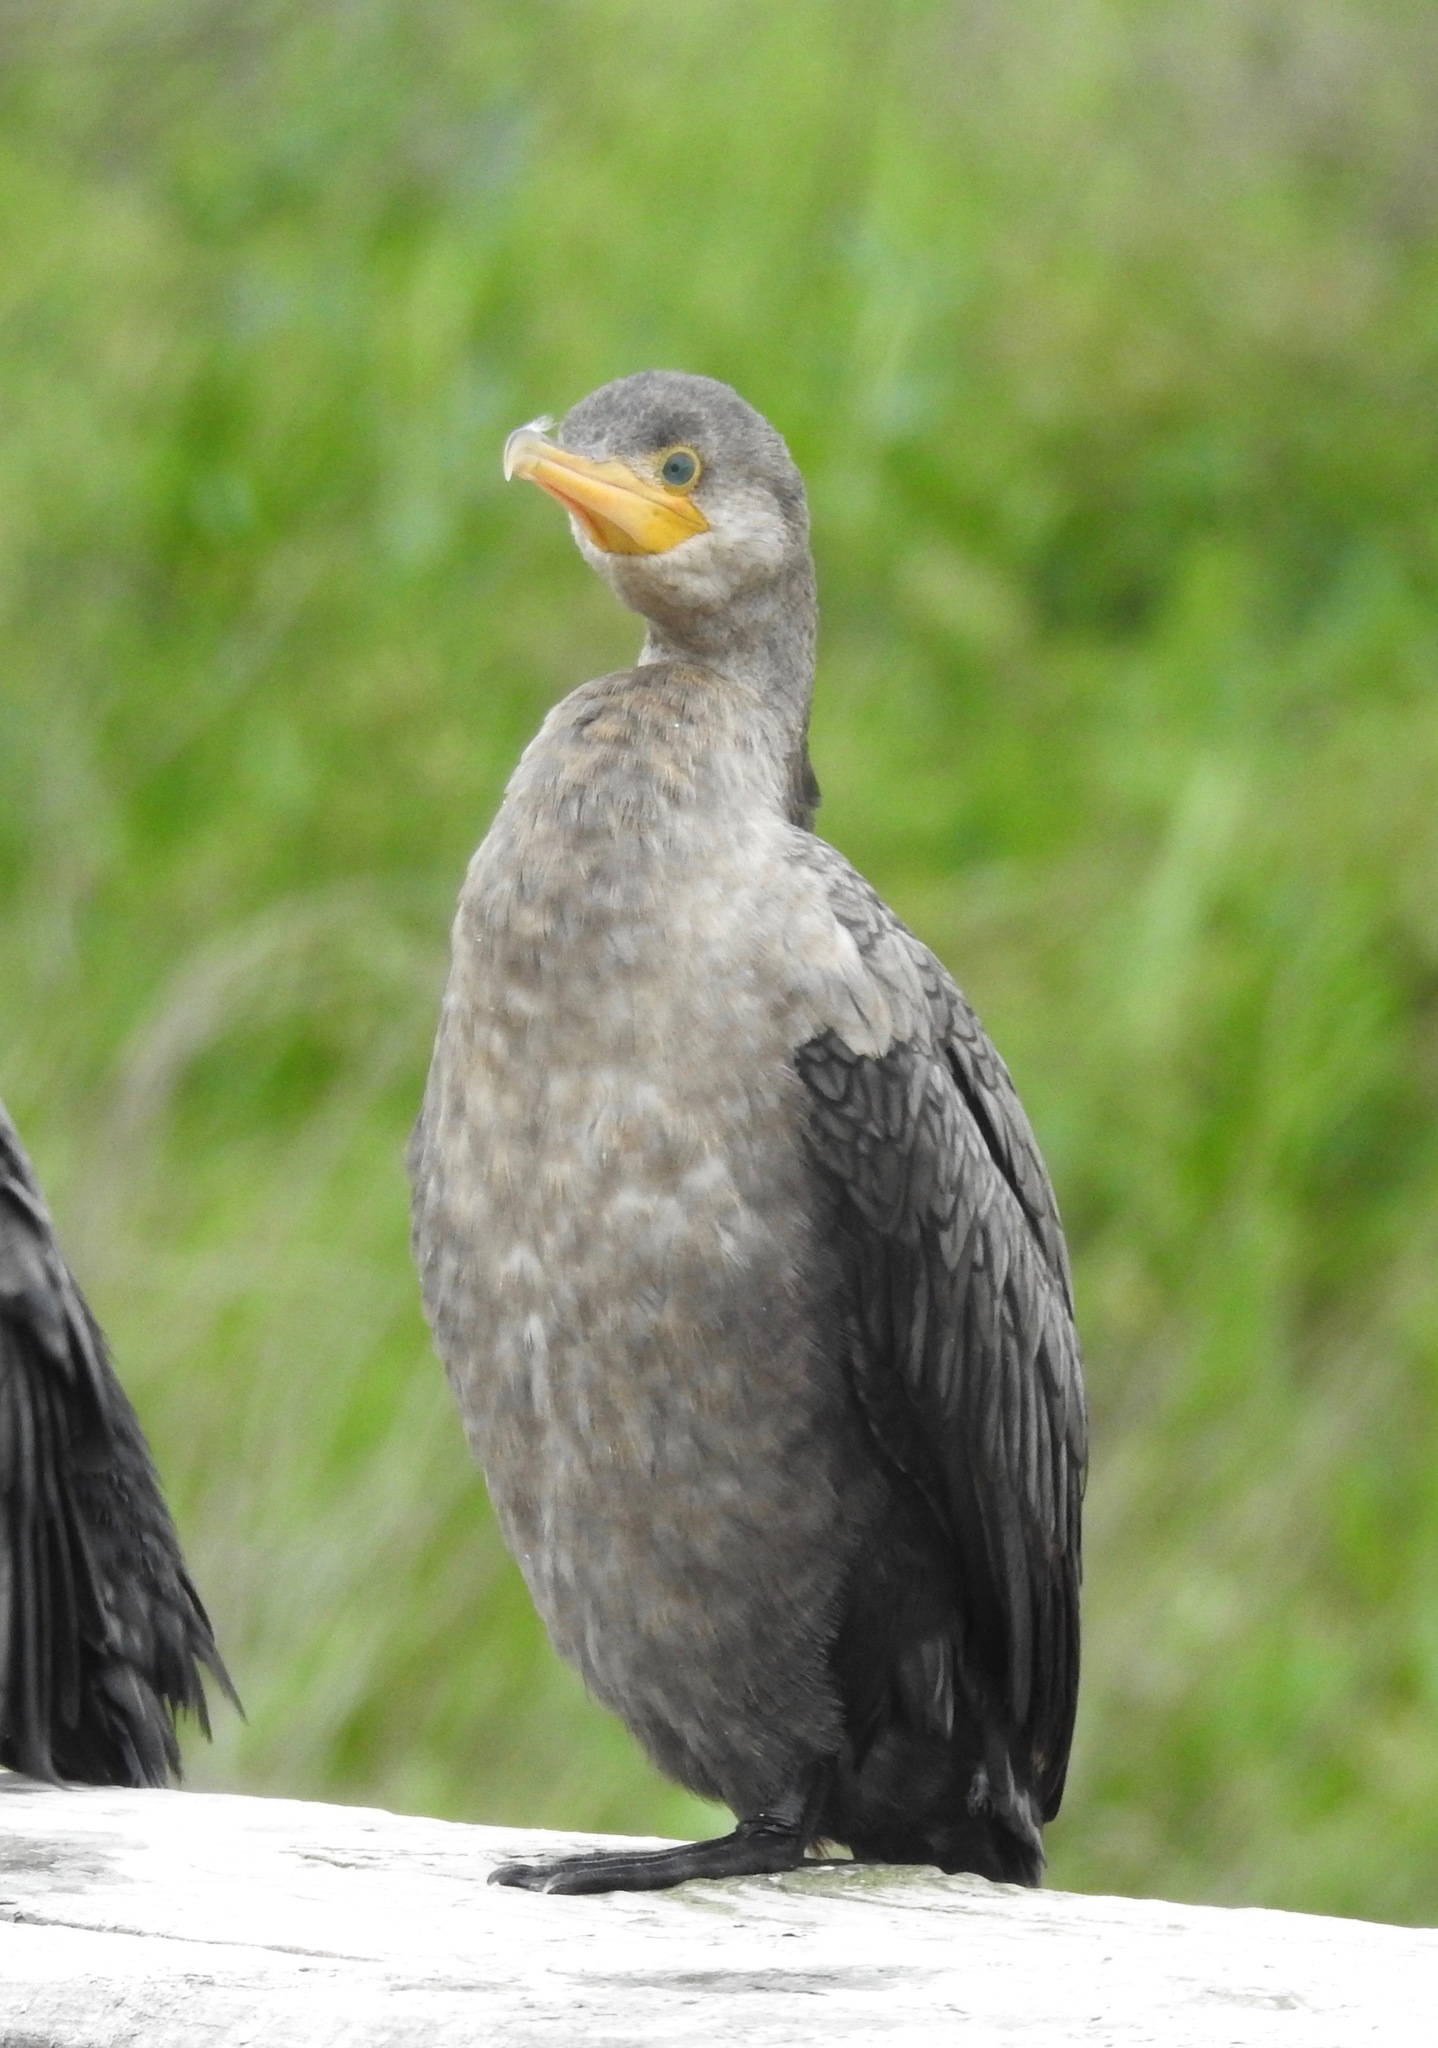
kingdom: Animalia
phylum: Chordata
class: Aves
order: Suliformes
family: Phalacrocoracidae
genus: Phalacrocorax
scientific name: Phalacrocorax brasilianus
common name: Neotropic cormorant
